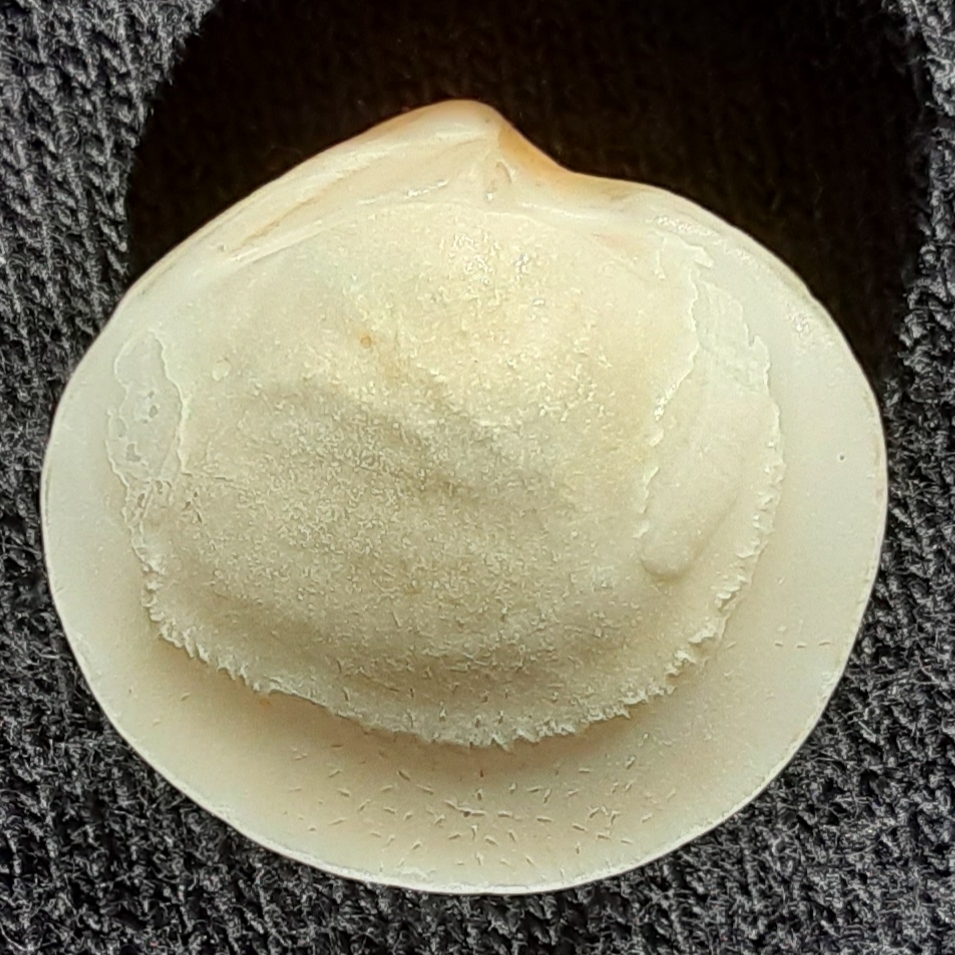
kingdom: Animalia
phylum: Mollusca
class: Bivalvia
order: Lucinida
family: Lucinidae
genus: Callucina
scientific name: Callucina keenae
